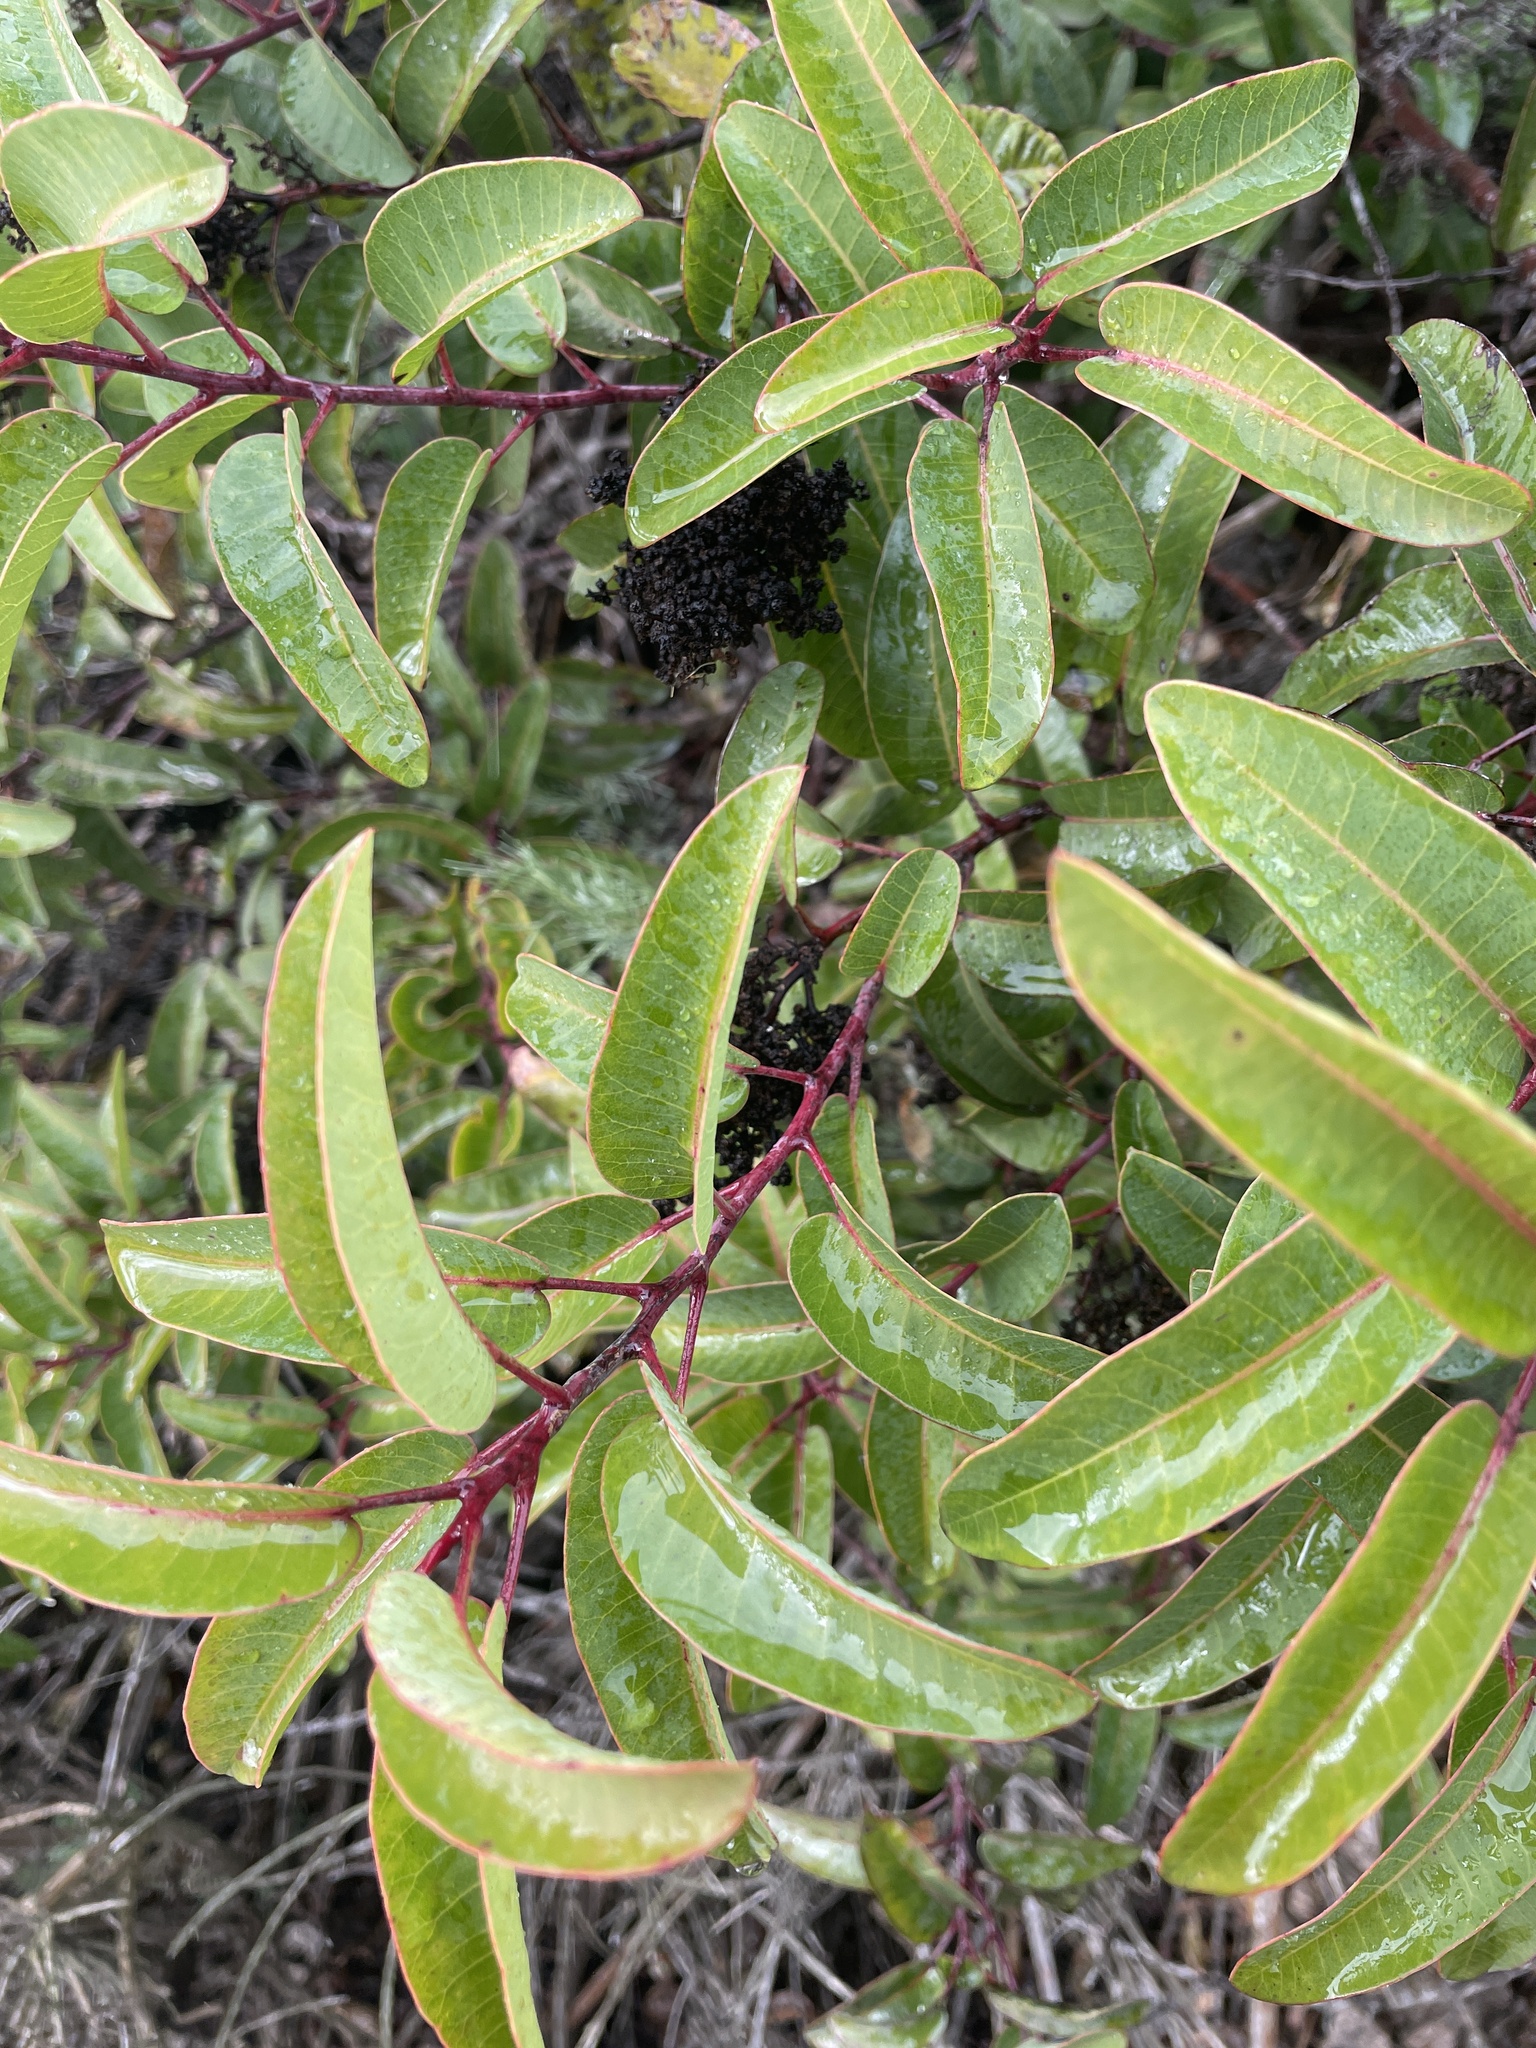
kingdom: Plantae
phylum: Tracheophyta
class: Magnoliopsida
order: Sapindales
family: Anacardiaceae
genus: Malosma
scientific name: Malosma laurina
